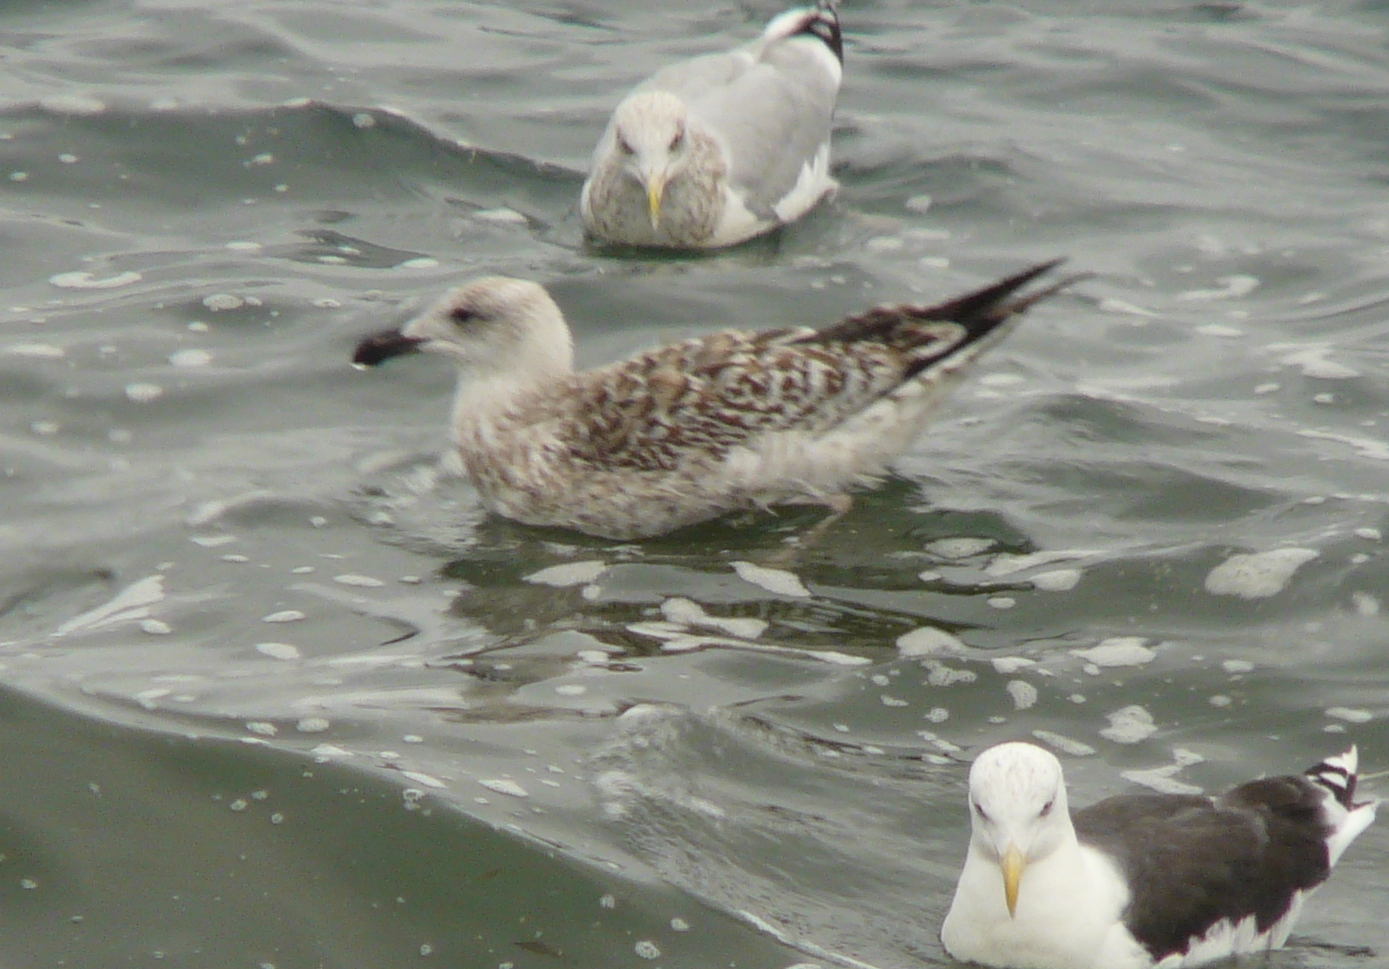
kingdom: Animalia
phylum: Chordata
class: Aves
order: Charadriiformes
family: Laridae
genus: Larus
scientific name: Larus marinus
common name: Great black-backed gull
